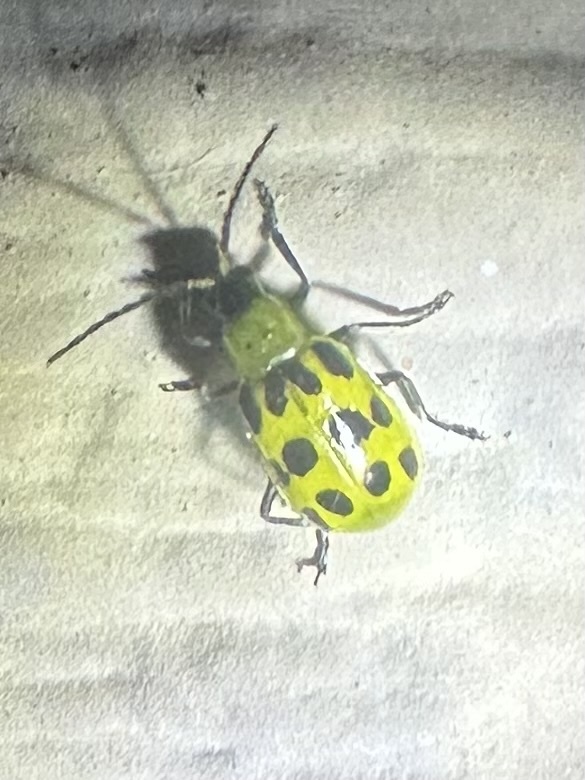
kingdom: Animalia
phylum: Arthropoda
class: Insecta
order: Coleoptera
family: Chrysomelidae
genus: Diabrotica
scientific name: Diabrotica undecimpunctata
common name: Spotted cucumber beetle
